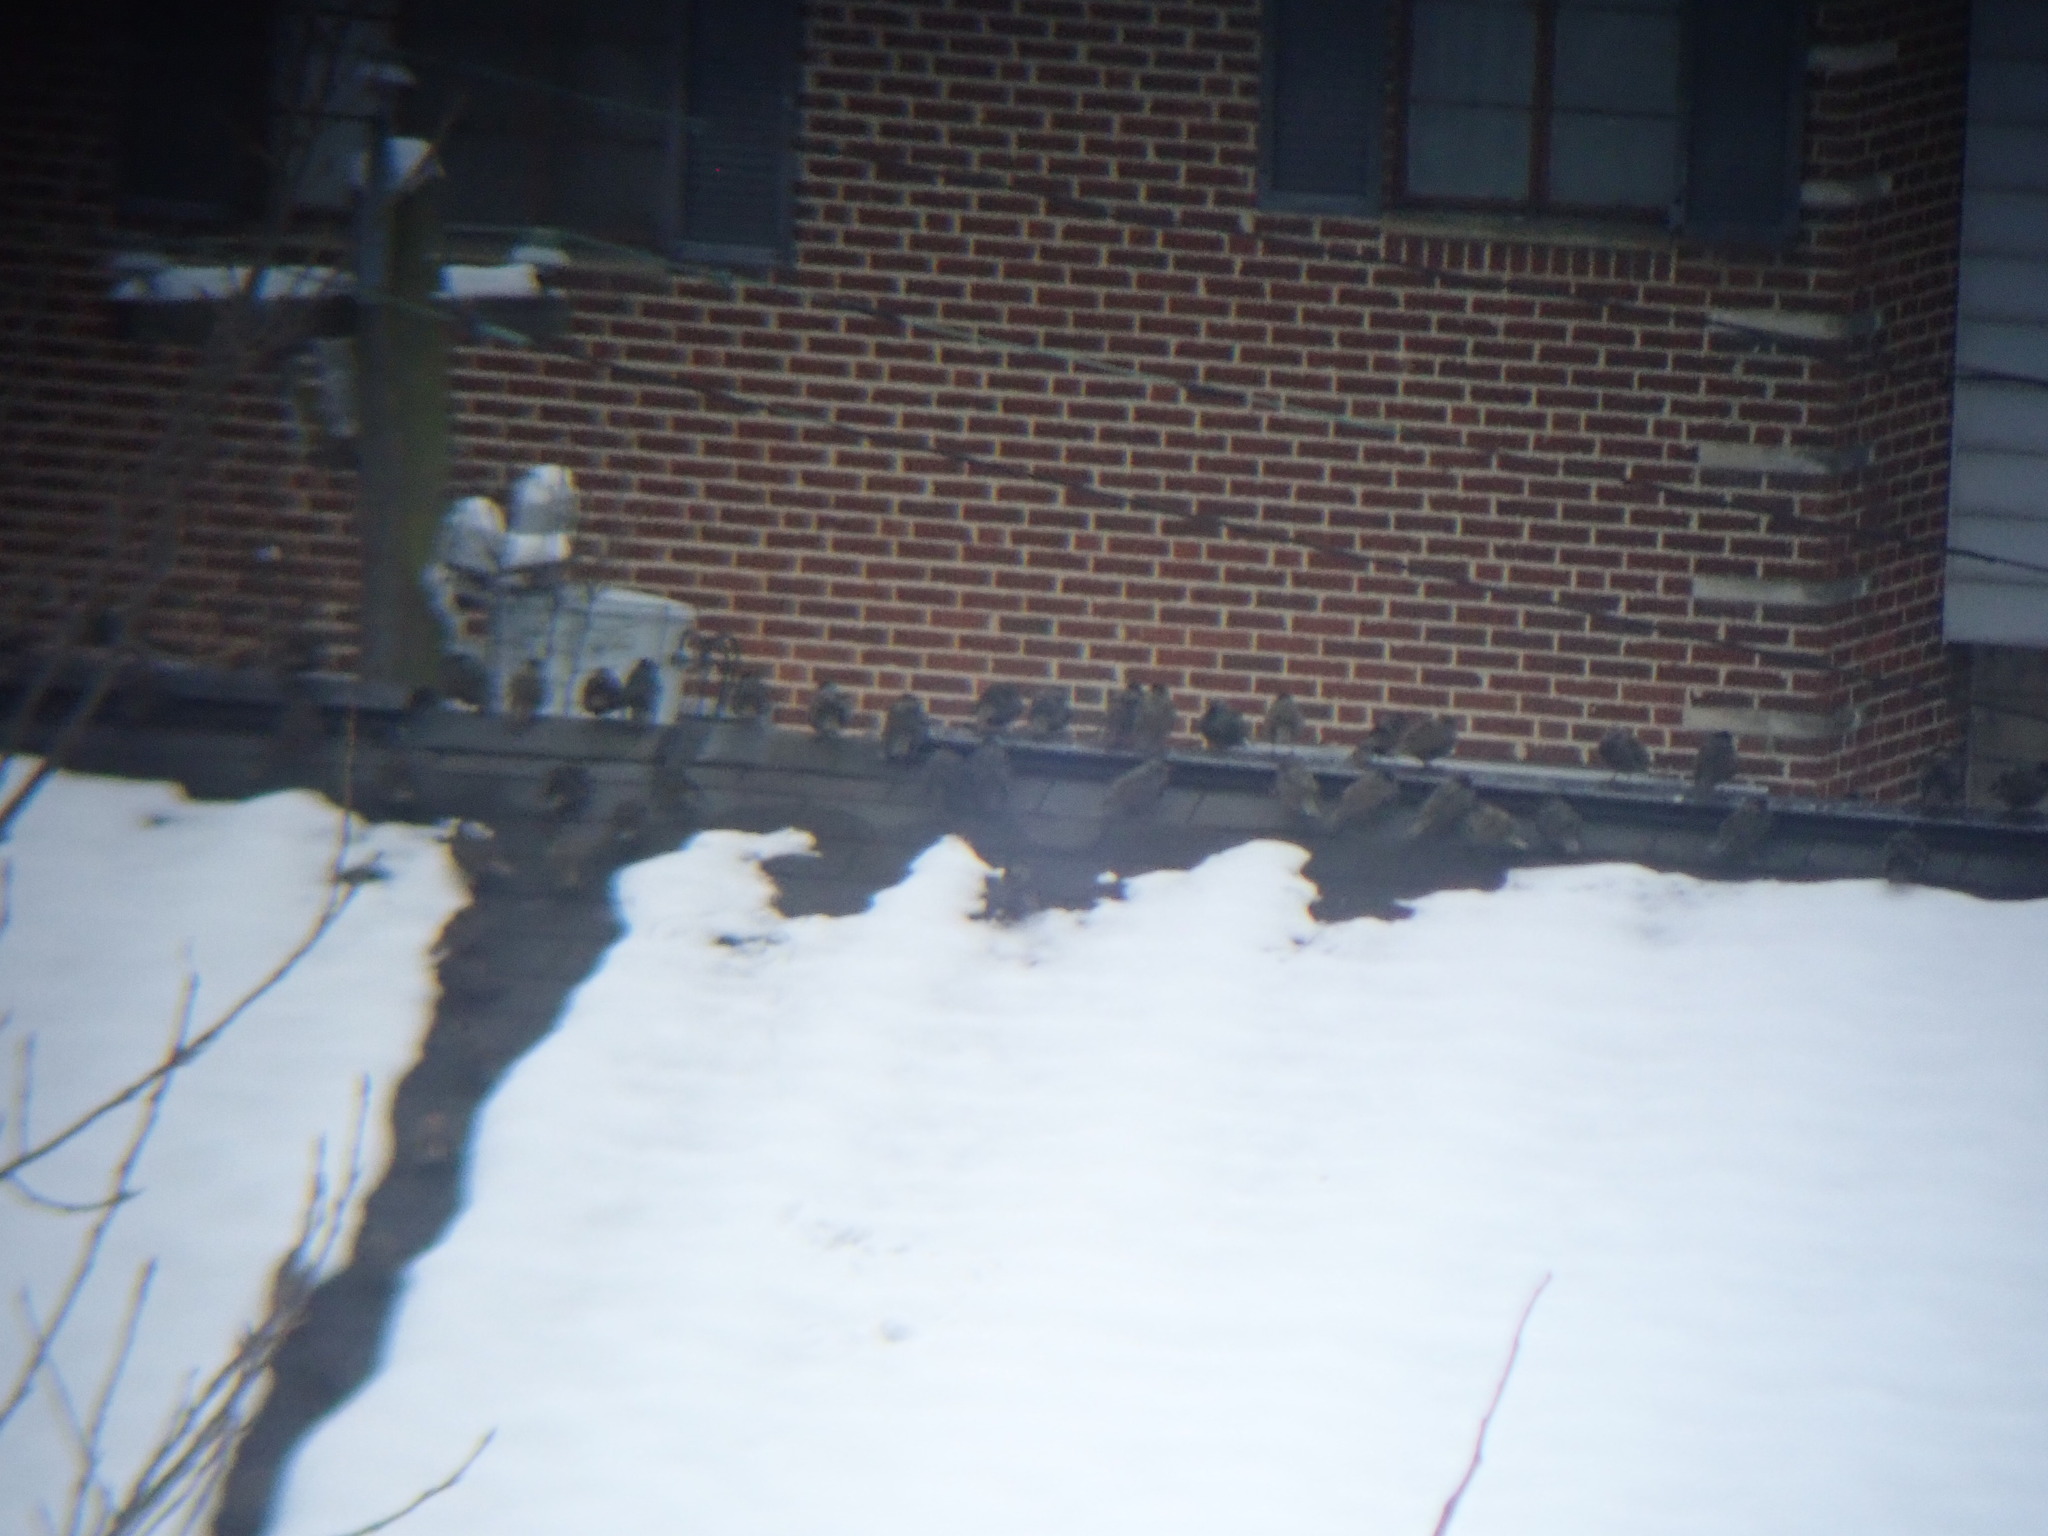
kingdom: Animalia
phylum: Chordata
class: Aves
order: Passeriformes
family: Sturnidae
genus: Sturnus
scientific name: Sturnus vulgaris
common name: Common starling
